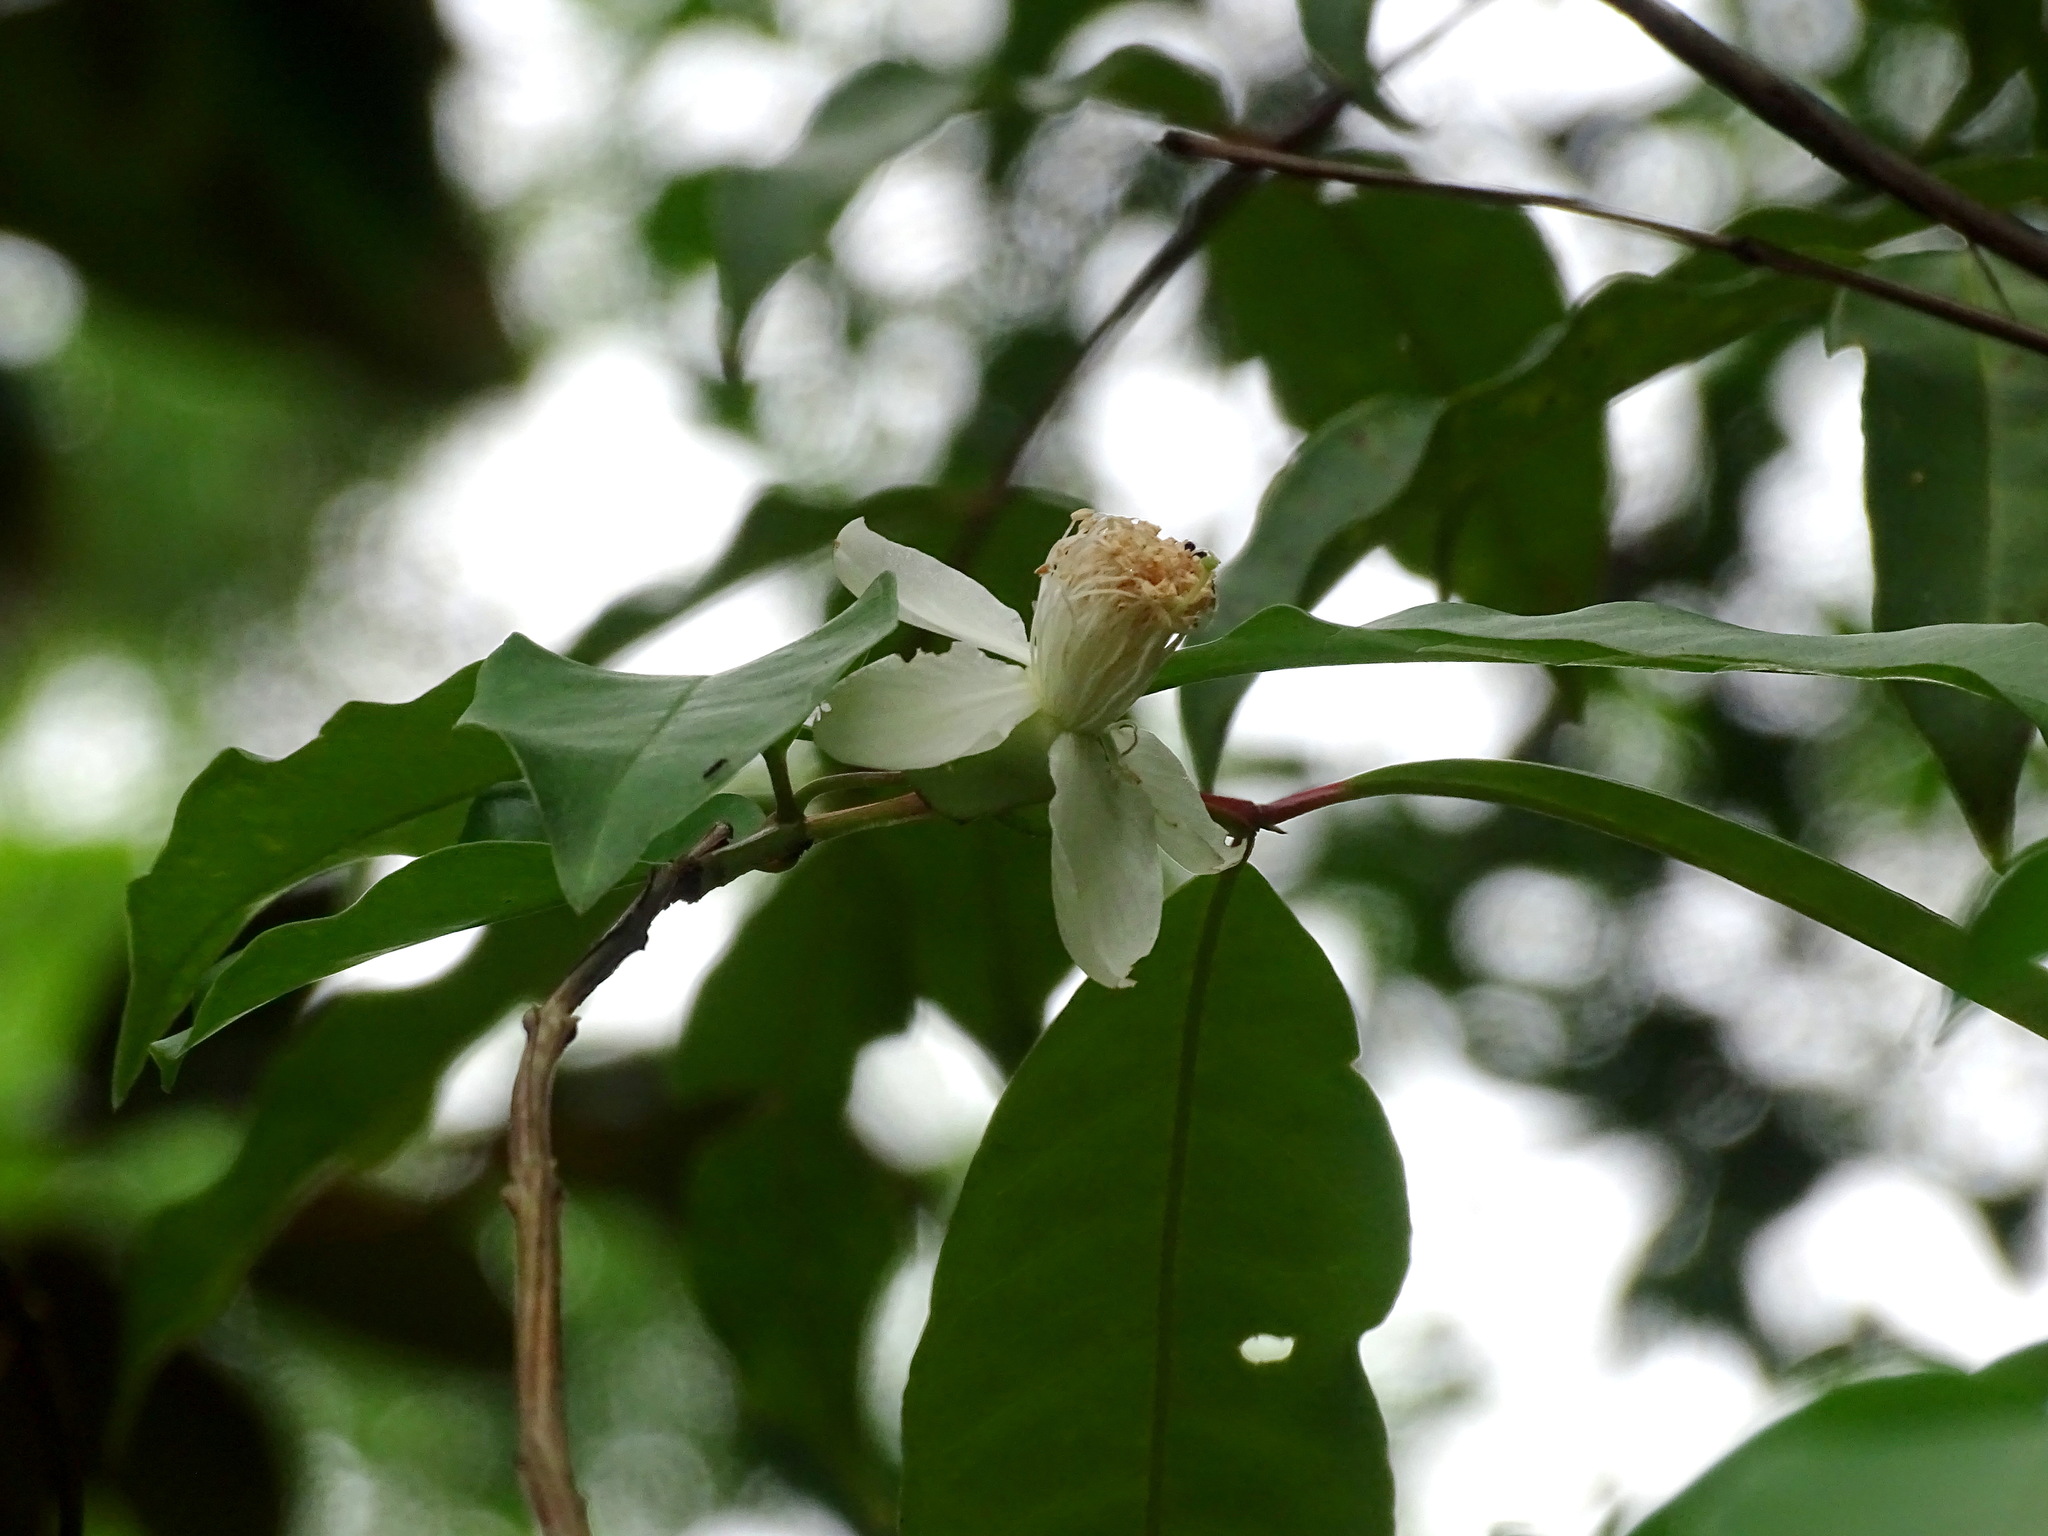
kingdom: Plantae
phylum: Tracheophyta
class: Magnoliopsida
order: Myrtales
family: Myrtaceae
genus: Psidium
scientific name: Psidium friedrichsthalianum
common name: Costa rican guava
